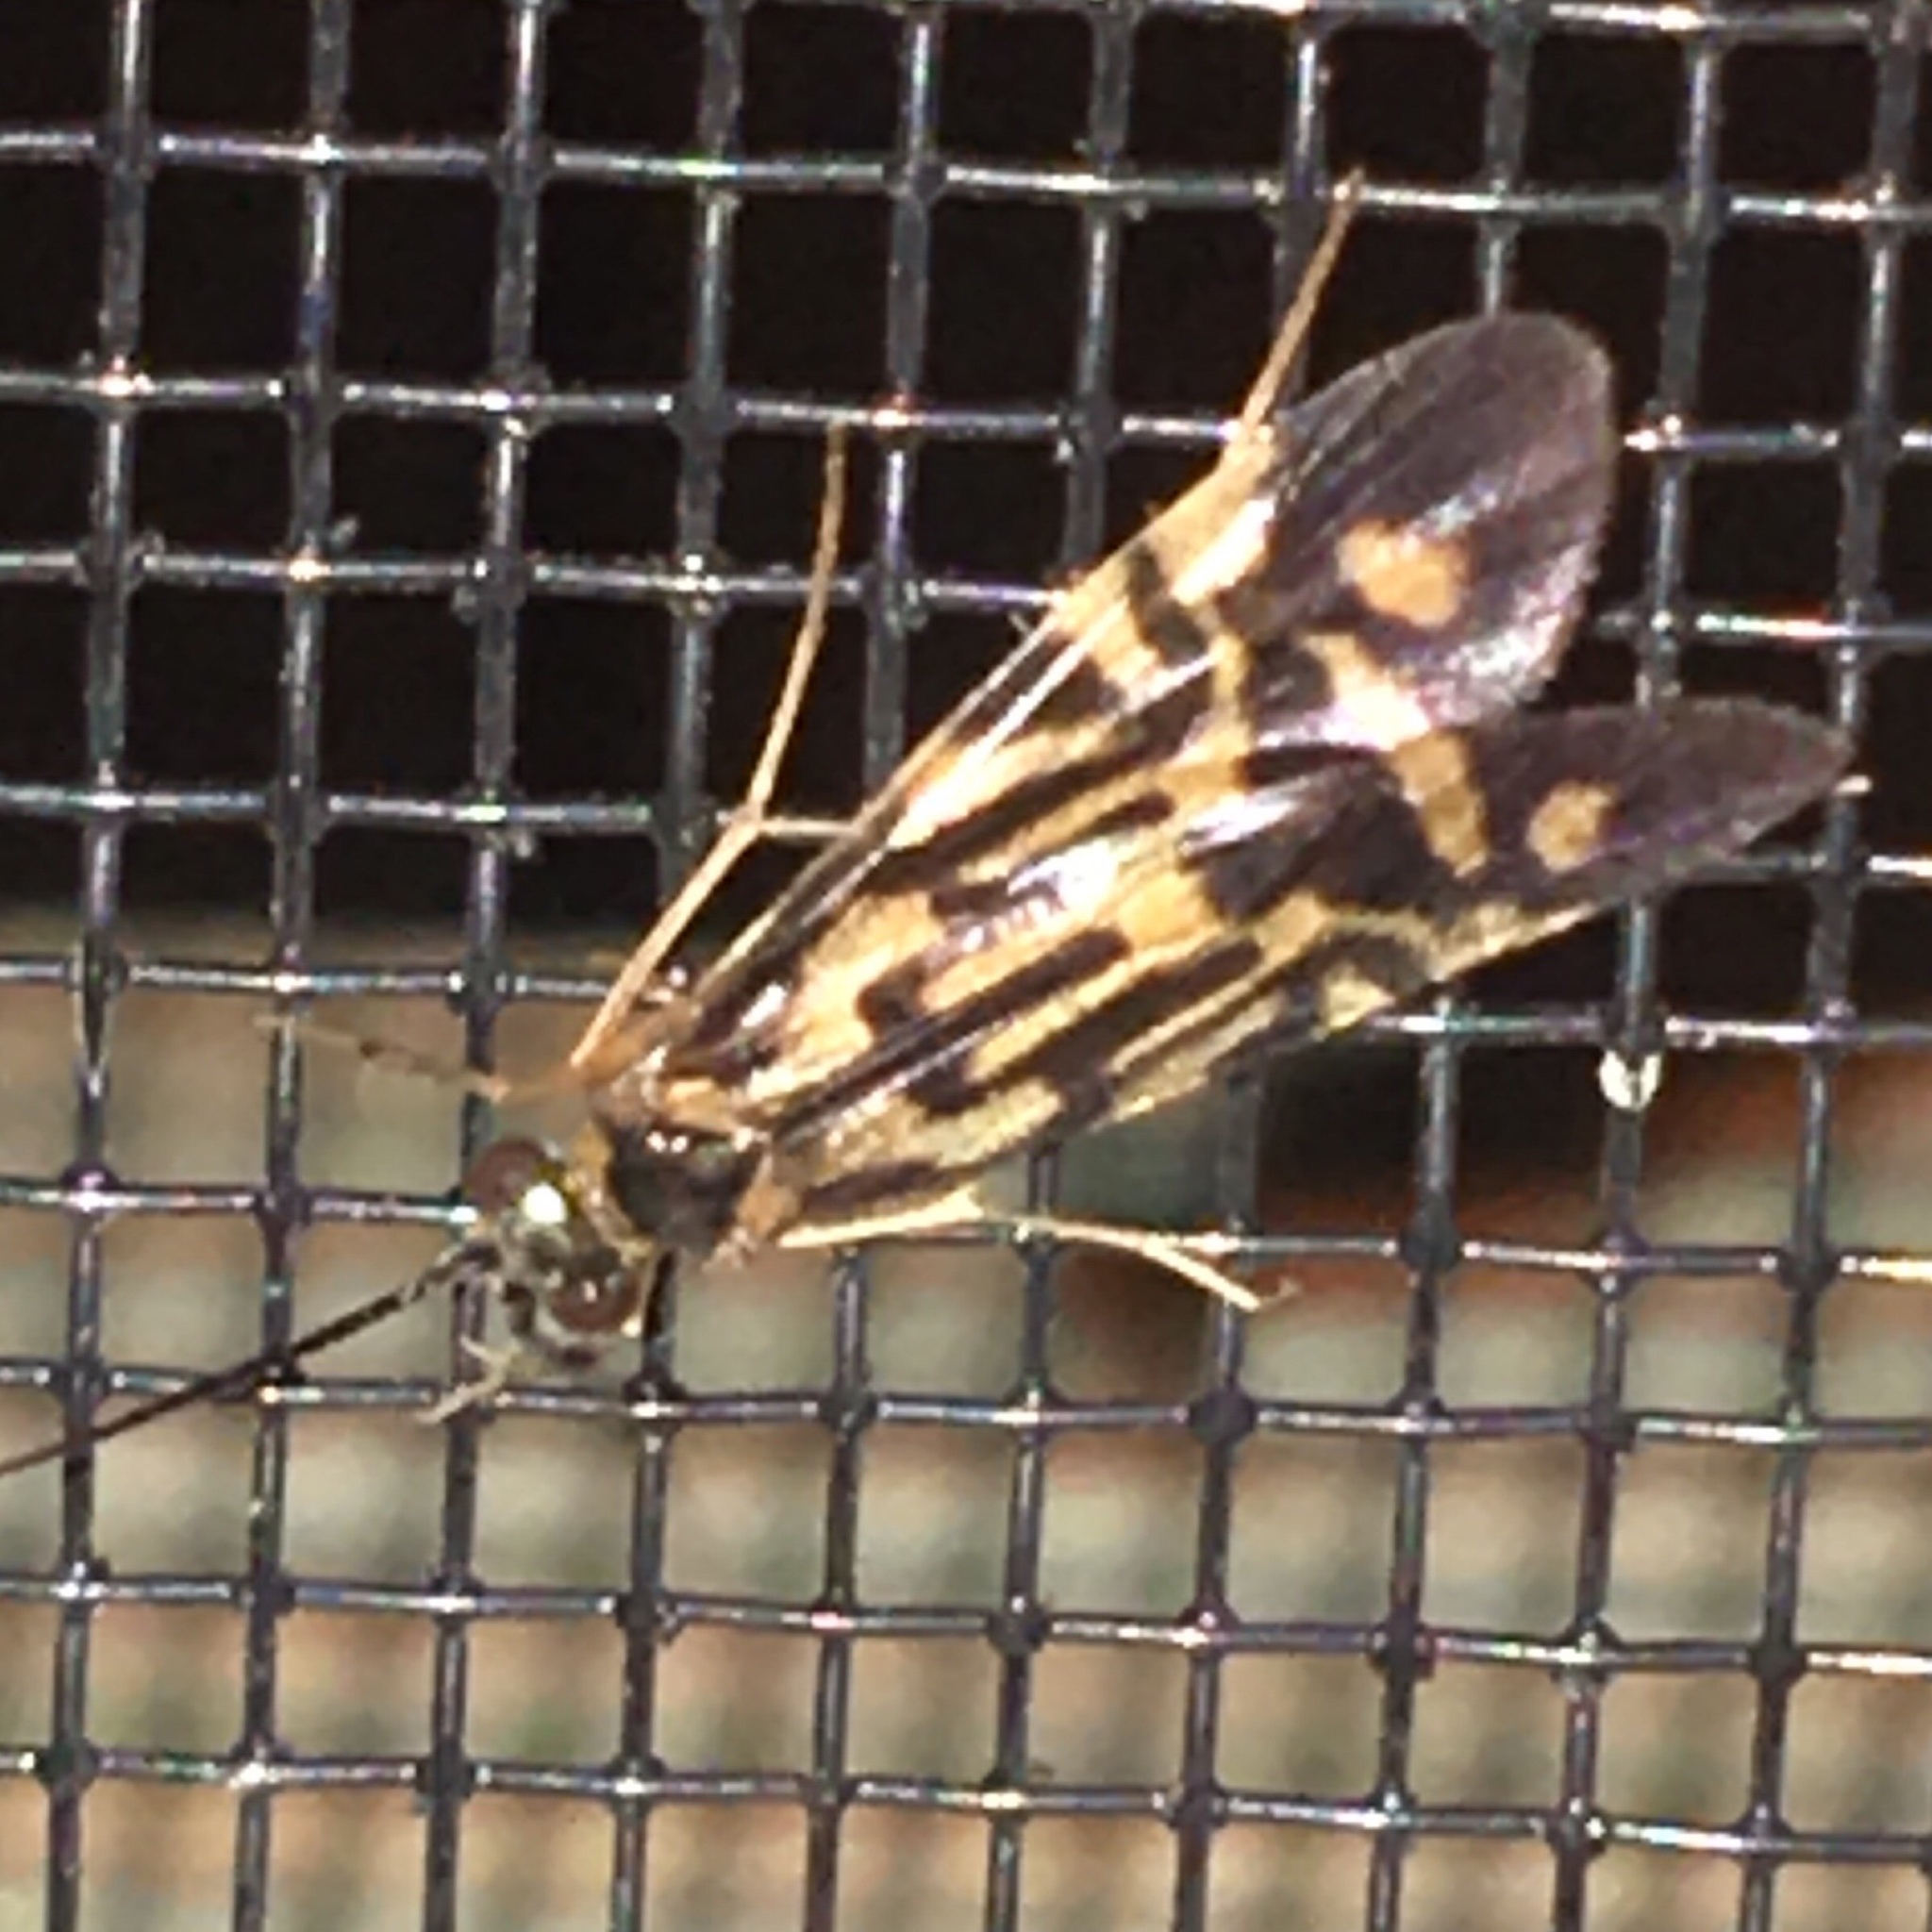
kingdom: Animalia
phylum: Arthropoda
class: Insecta
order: Trichoptera
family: Hydropsychidae
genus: Macrostemum
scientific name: Macrostemum zebratum
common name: Zebra caddisfly
